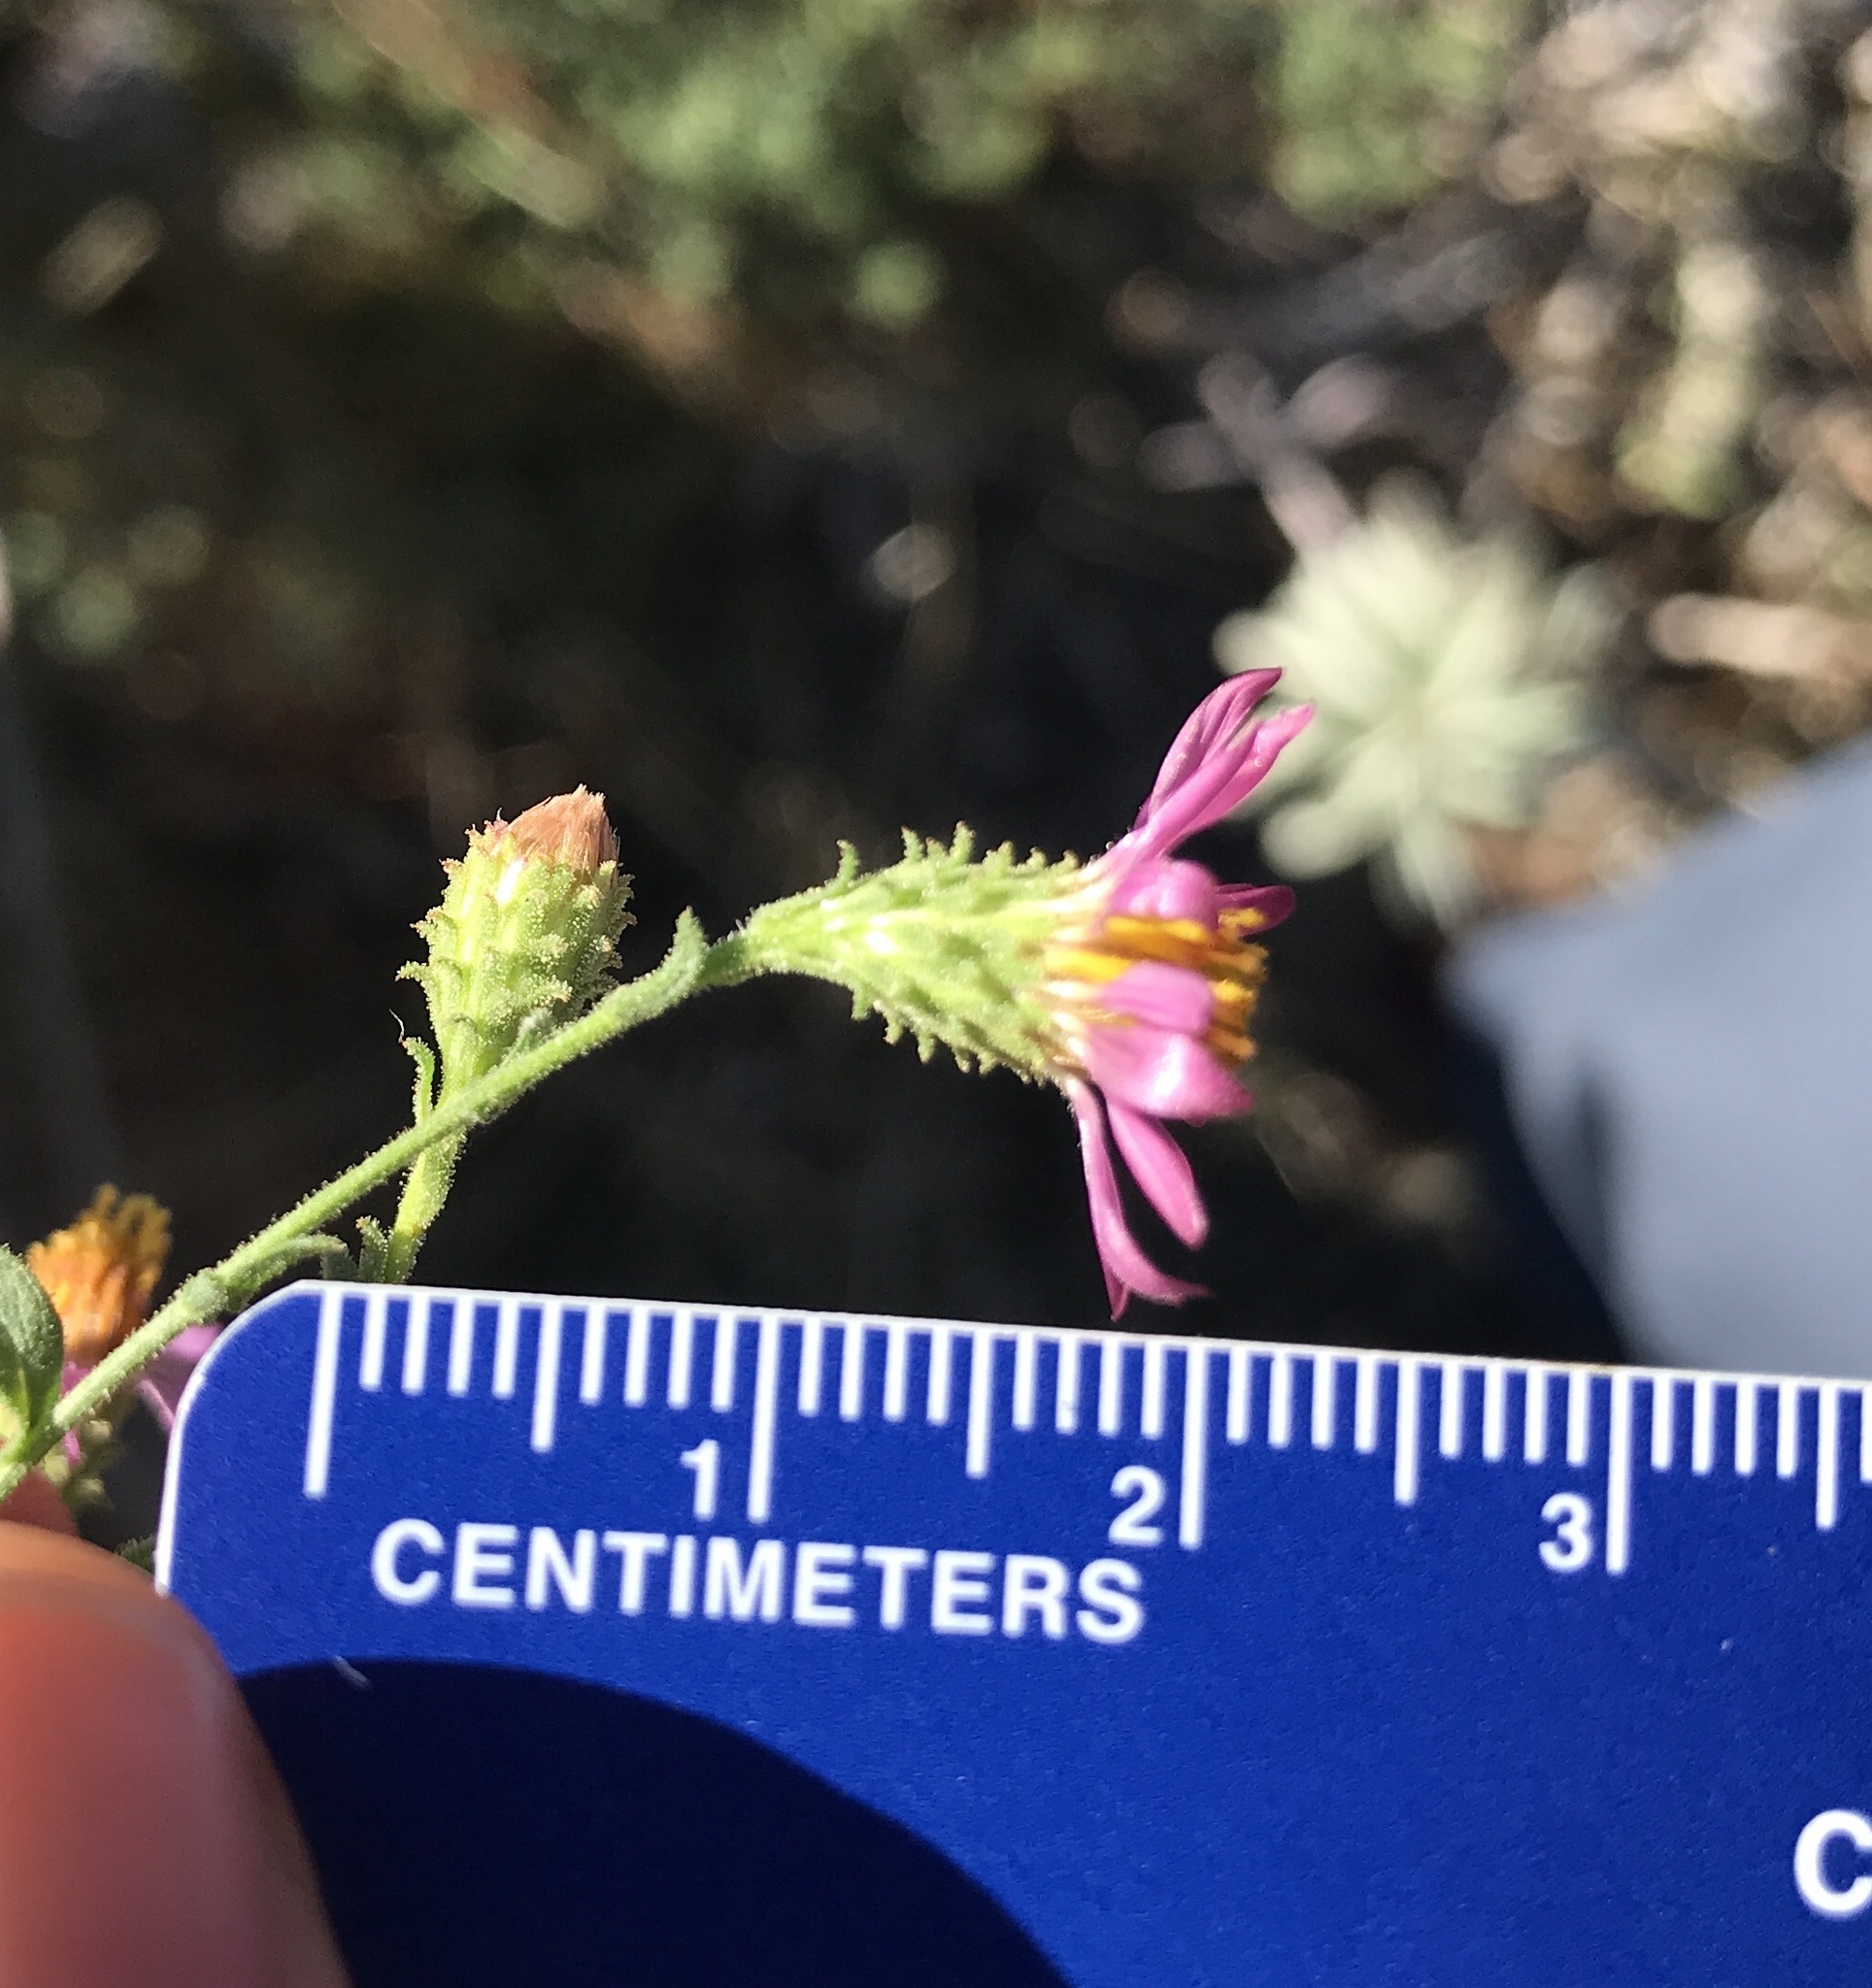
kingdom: Plantae
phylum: Tracheophyta
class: Magnoliopsida
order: Asterales
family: Asteraceae
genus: Corethrogyne
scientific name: Corethrogyne filaginifolia
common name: Sand-aster
